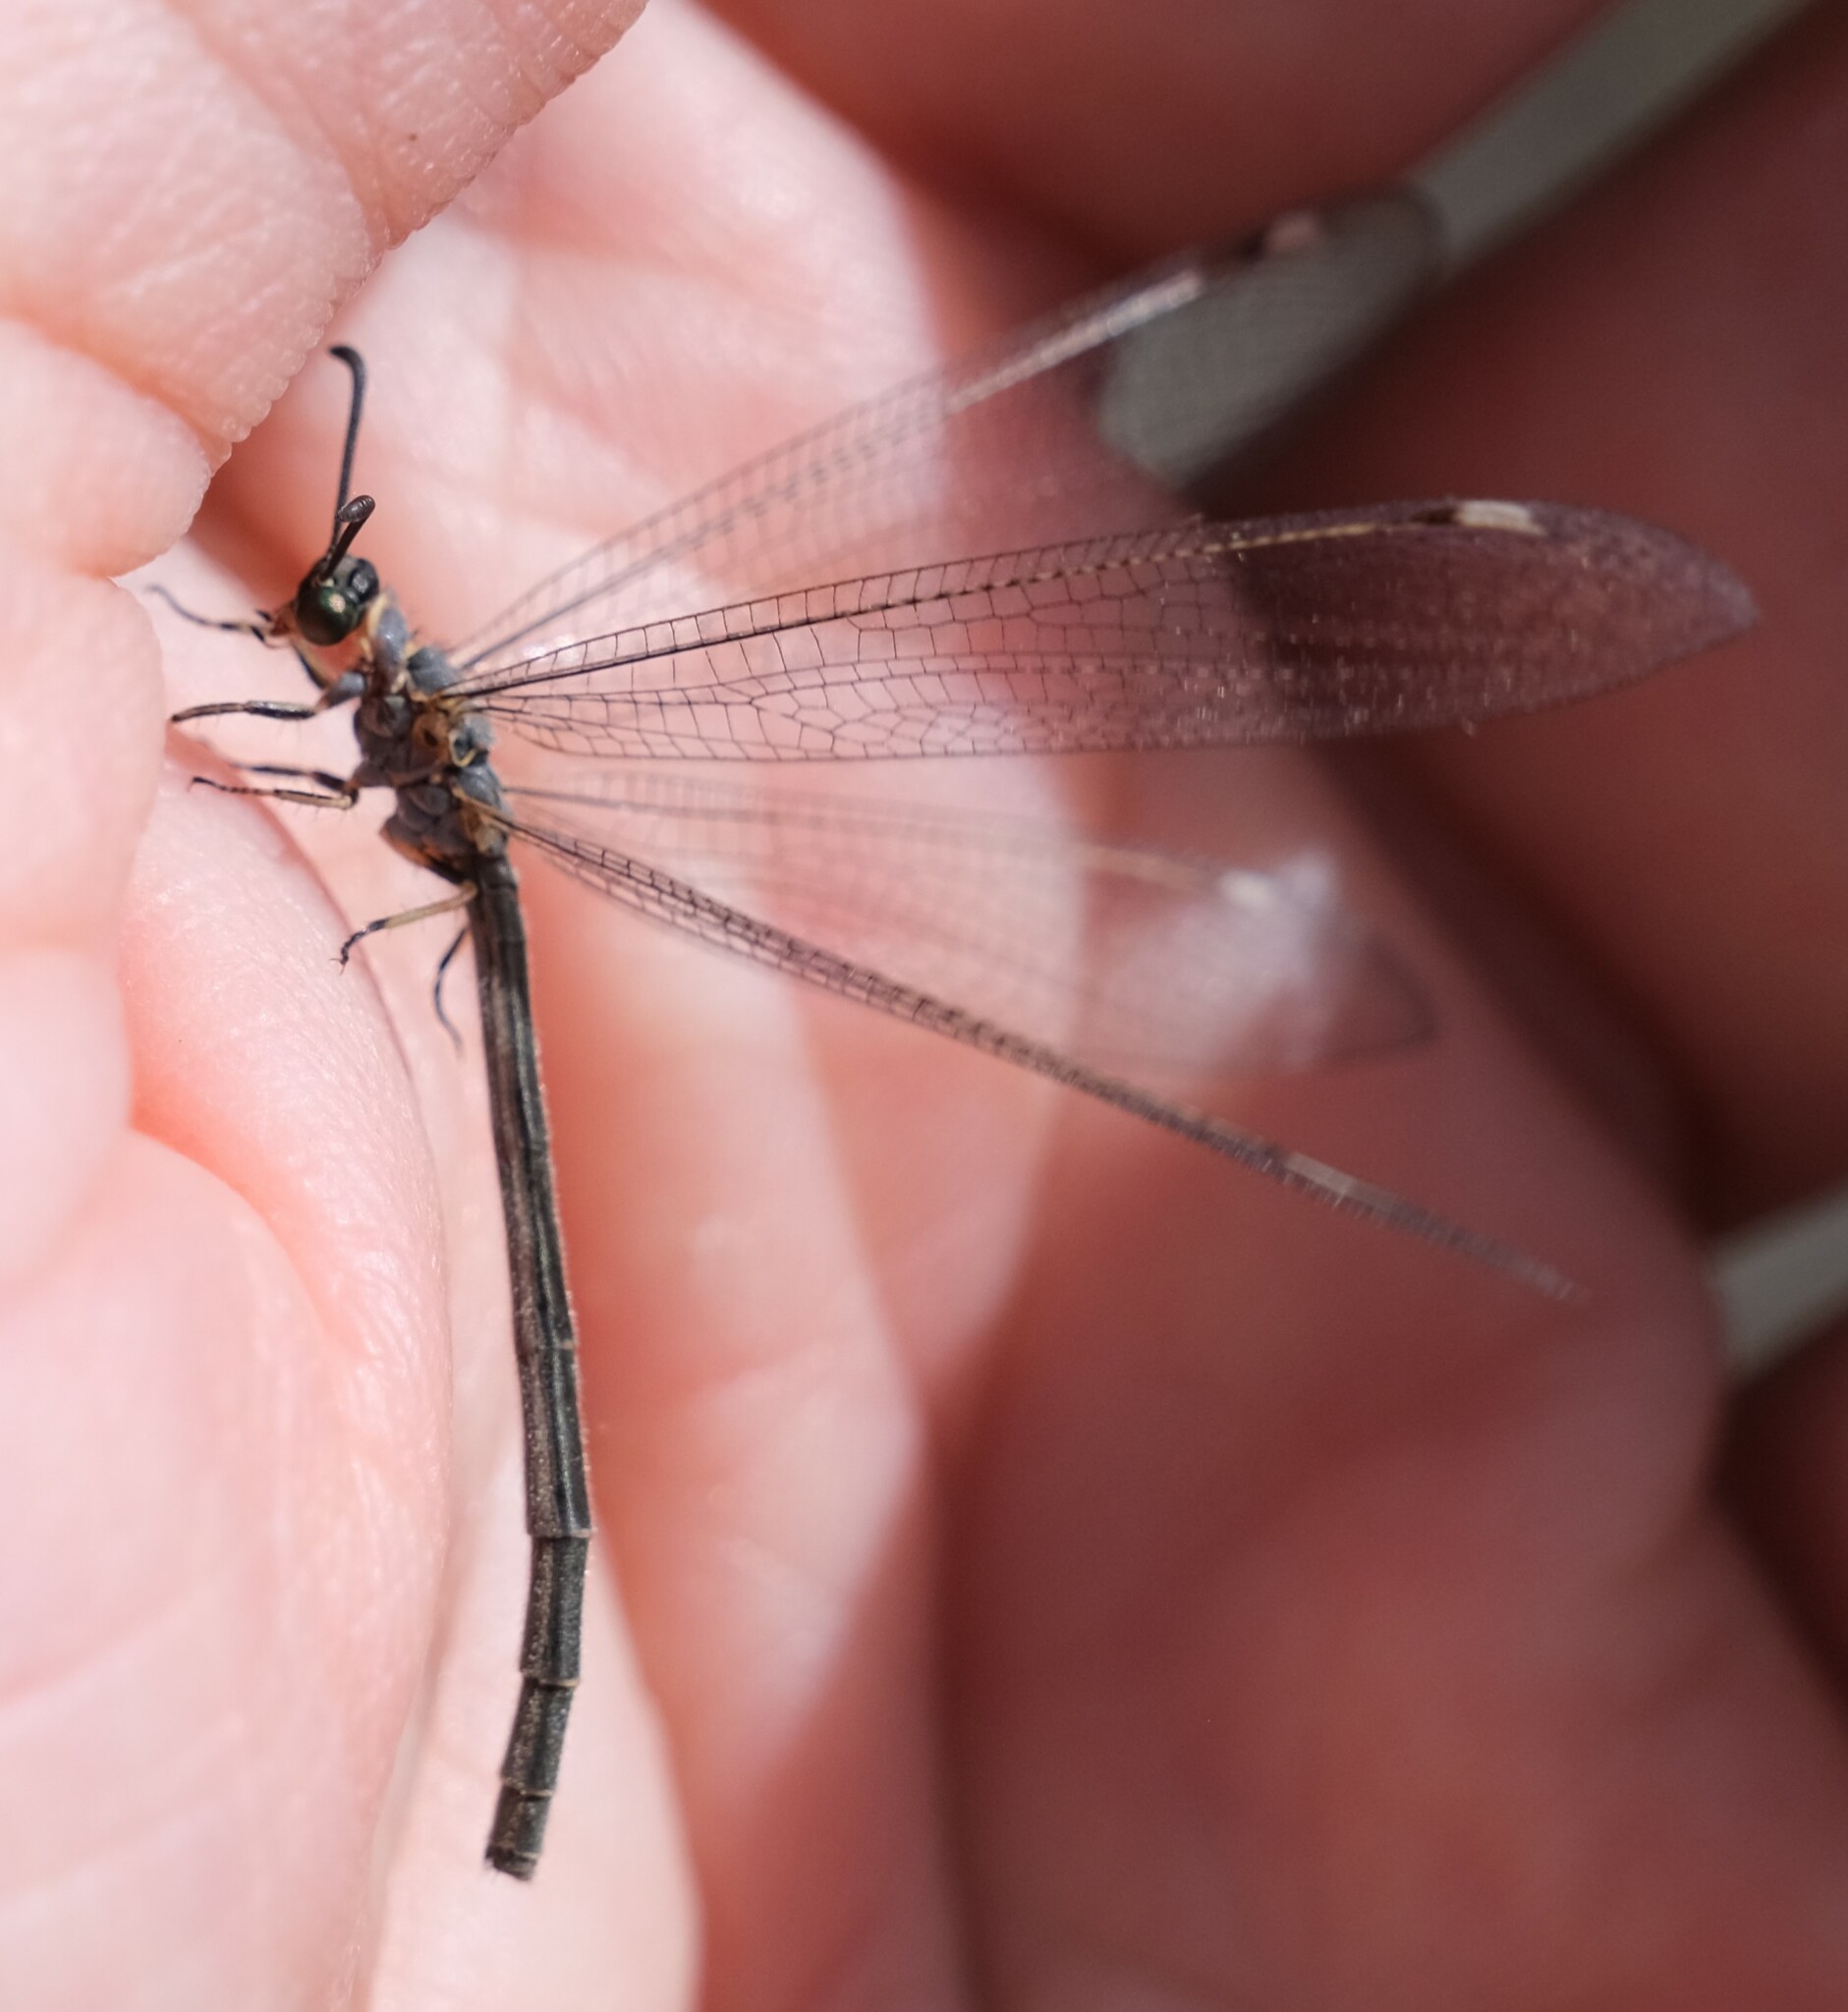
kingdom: Animalia
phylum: Arthropoda
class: Insecta
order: Neuroptera
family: Myrmeleontidae
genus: Myrmeleon
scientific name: Myrmeleon acer
